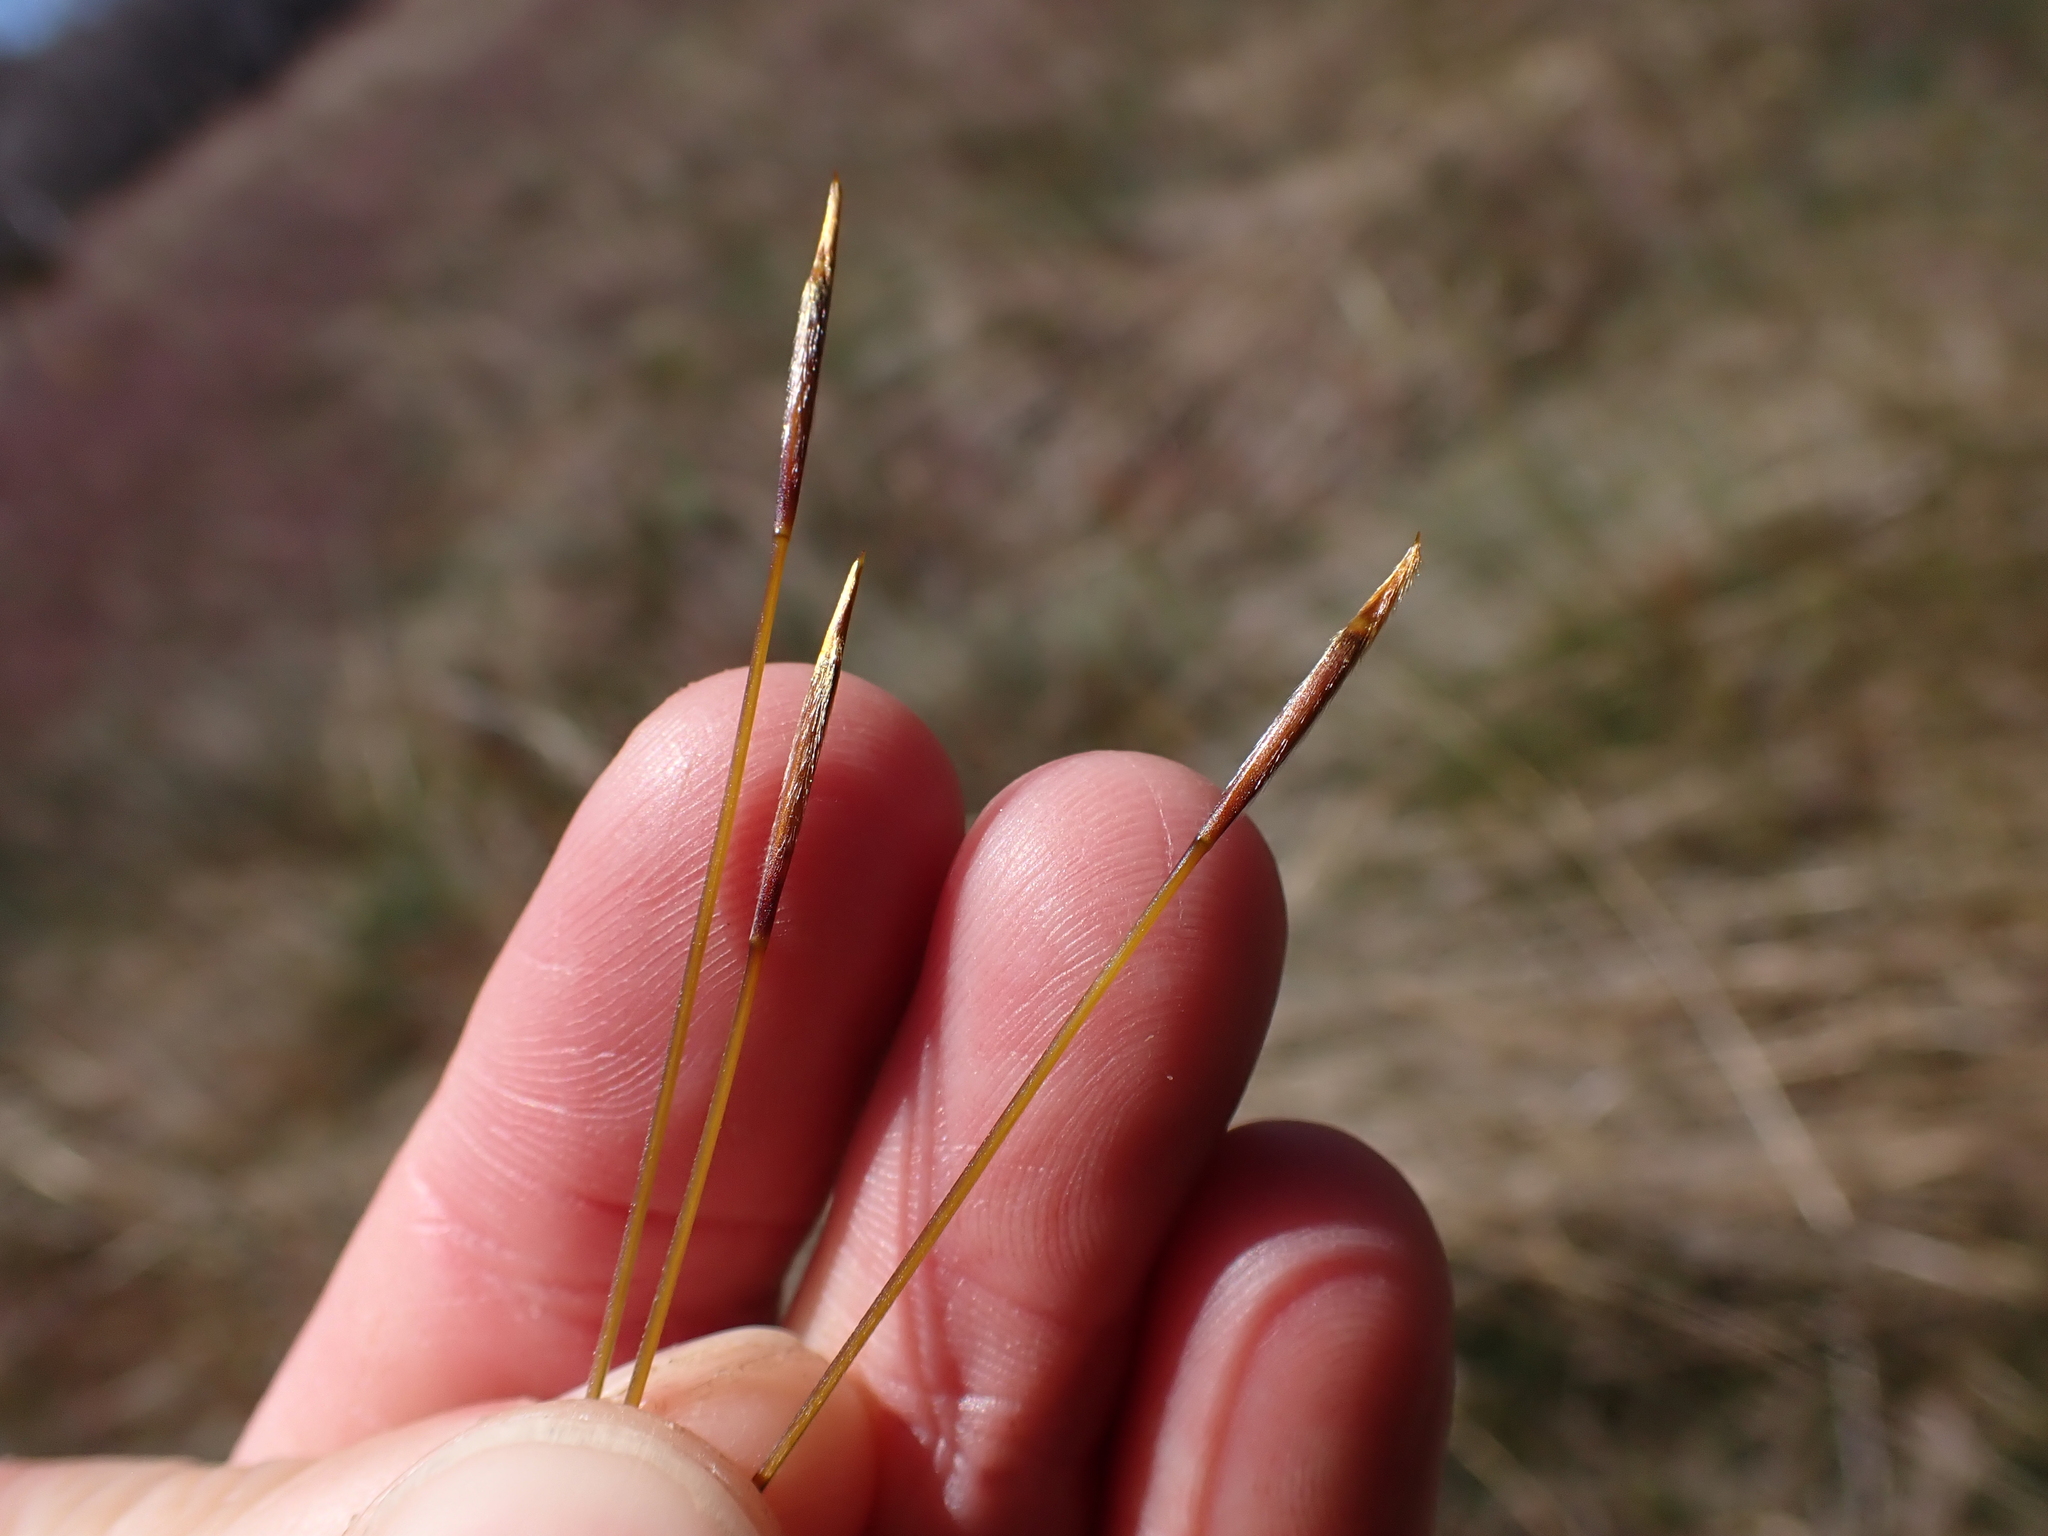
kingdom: Plantae
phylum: Tracheophyta
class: Liliopsida
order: Poales
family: Poaceae
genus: Austrostipa
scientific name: Austrostipa nivicola
